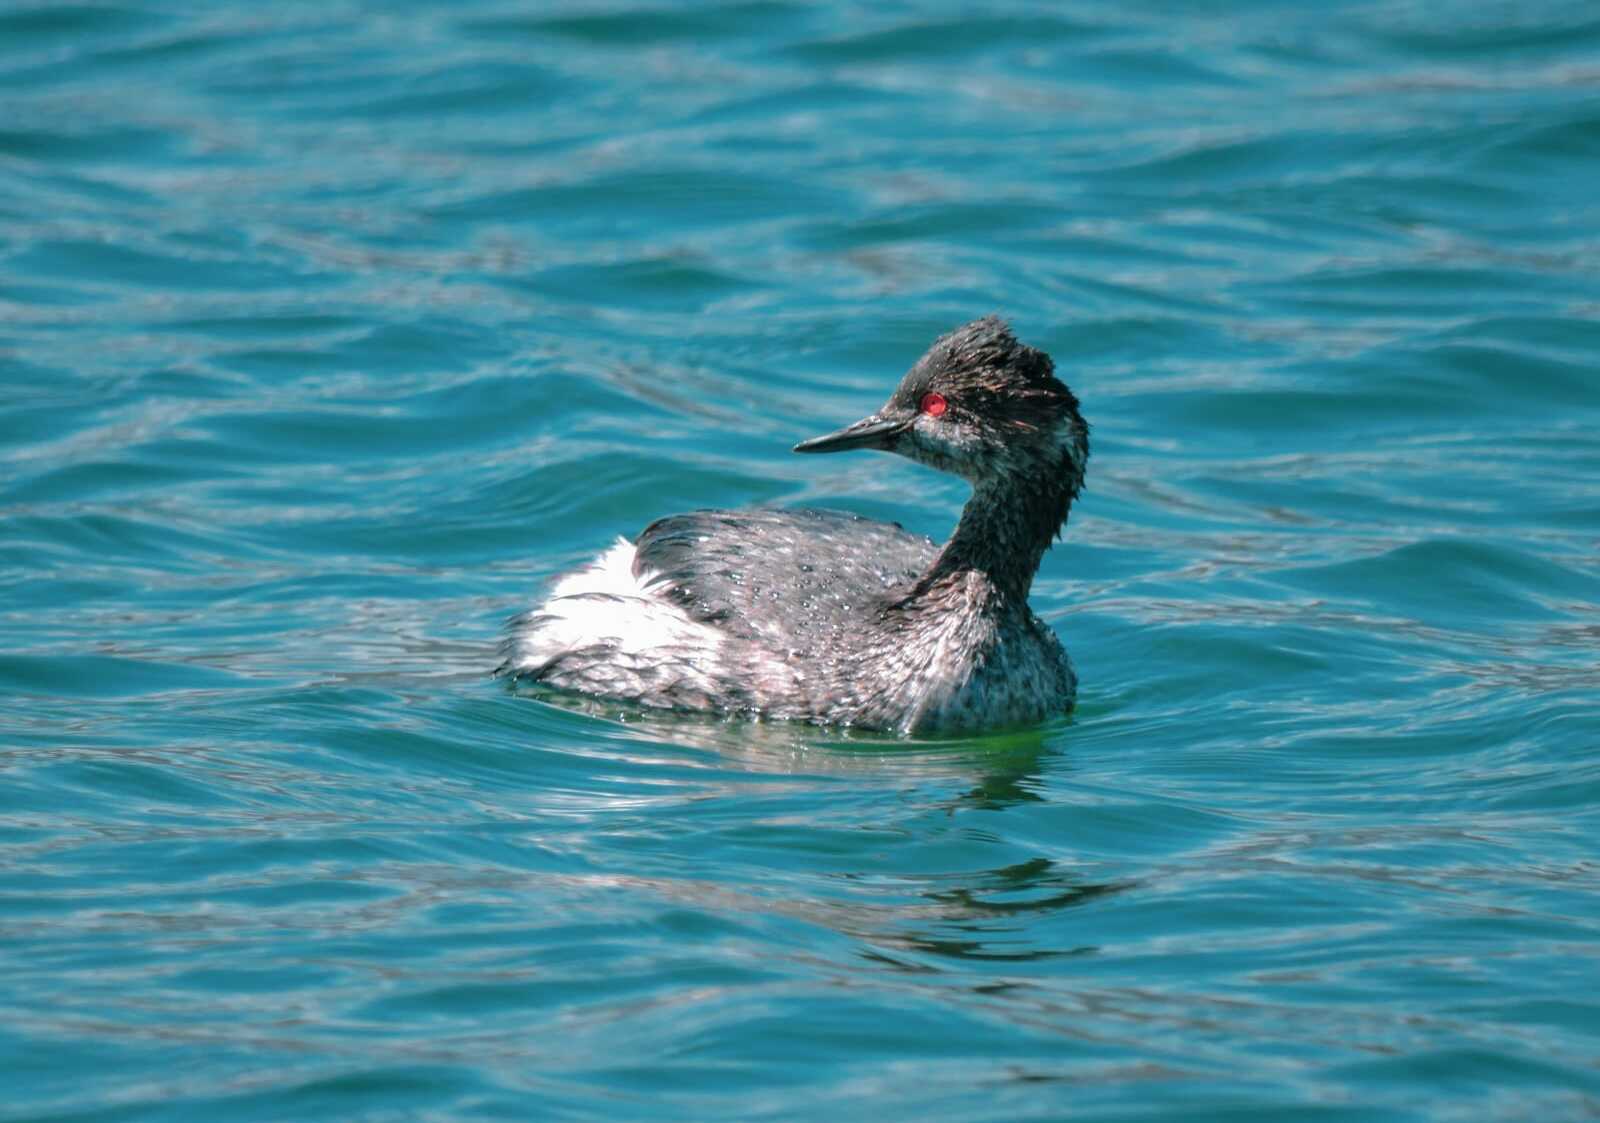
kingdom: Animalia
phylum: Chordata
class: Aves
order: Podicipediformes
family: Podicipedidae
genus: Podiceps
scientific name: Podiceps nigricollis
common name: Black-necked grebe
